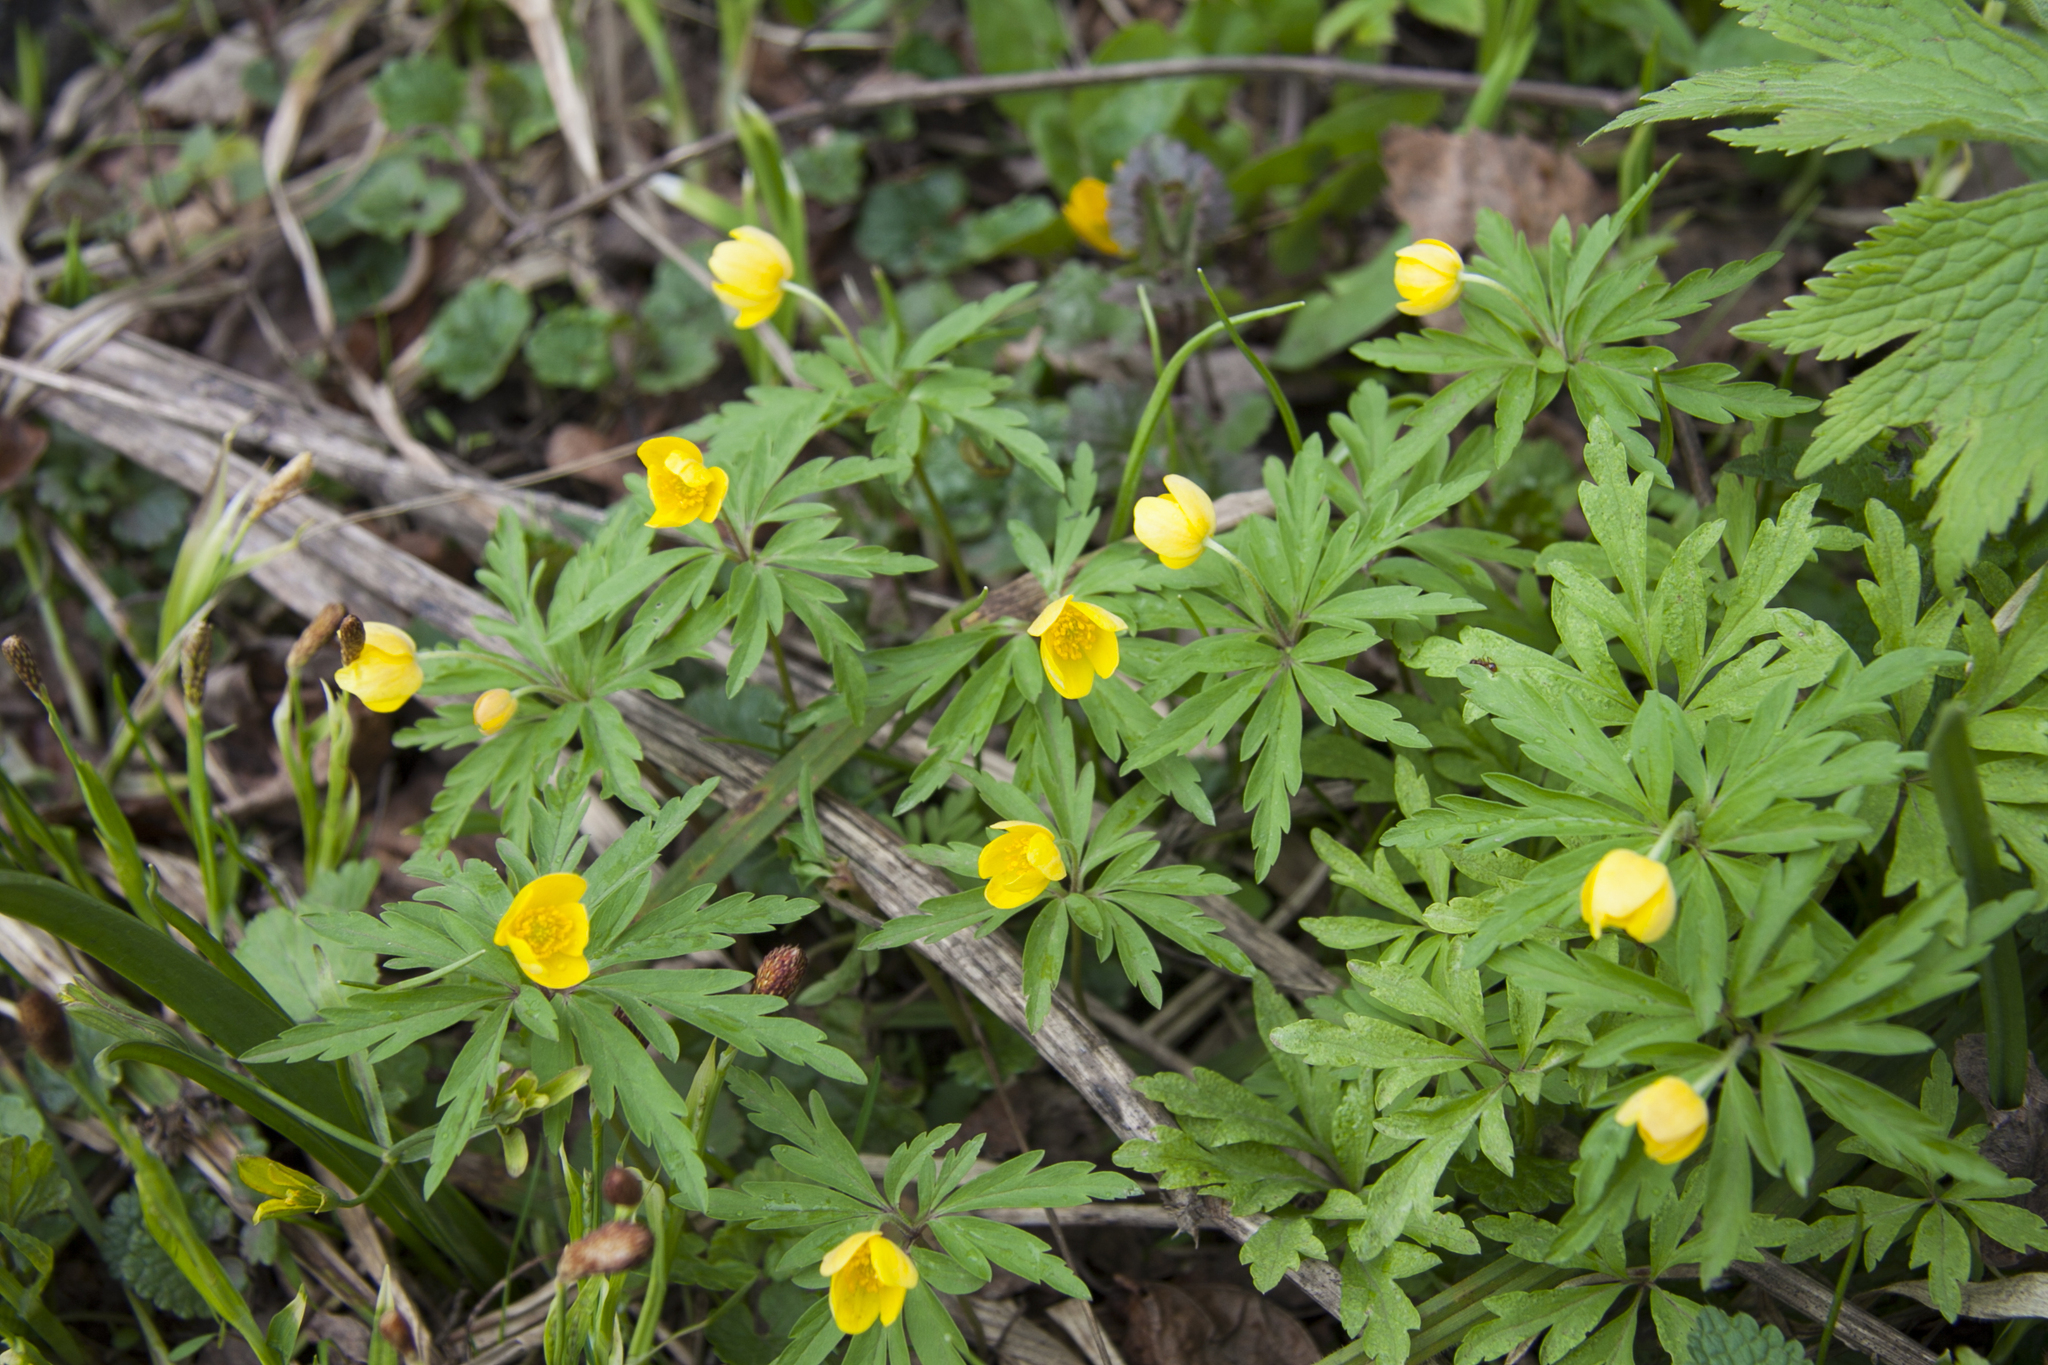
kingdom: Plantae
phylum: Tracheophyta
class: Magnoliopsida
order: Ranunculales
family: Ranunculaceae
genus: Anemone
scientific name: Anemone ranunculoides
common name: Yellow anemone
